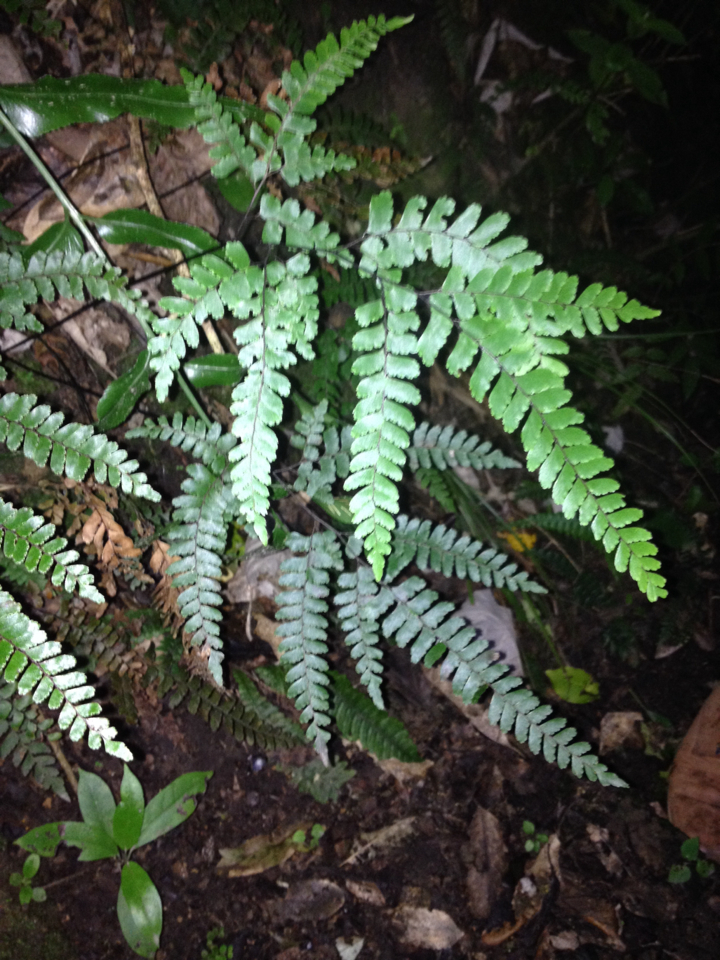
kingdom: Plantae
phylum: Tracheophyta
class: Polypodiopsida
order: Polypodiales
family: Pteridaceae
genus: Adiantum
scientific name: Adiantum cunninghamii
